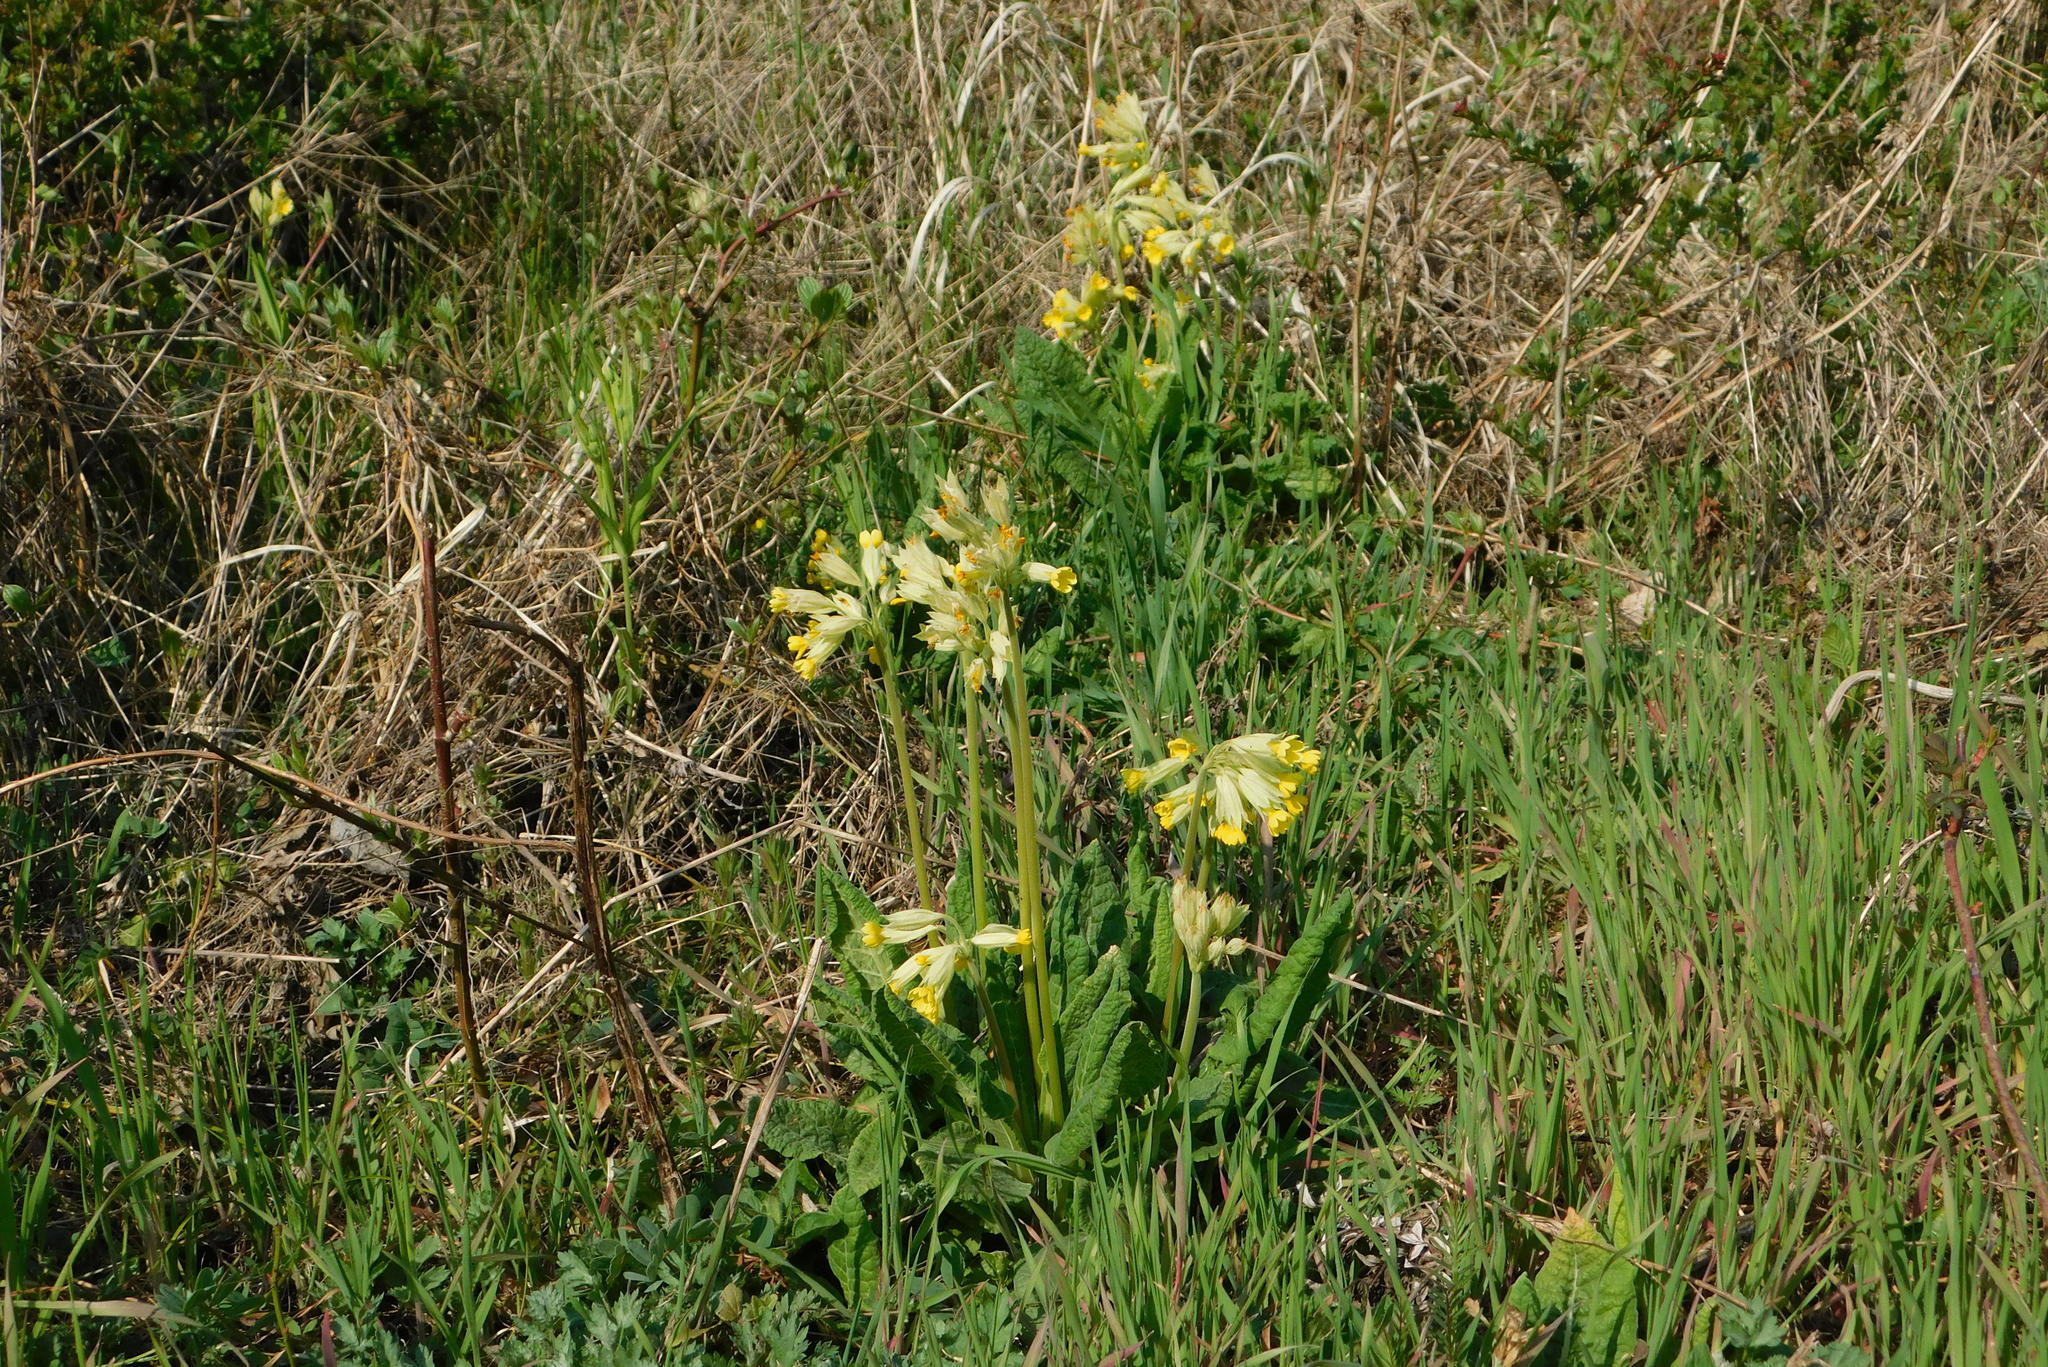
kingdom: Plantae
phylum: Tracheophyta
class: Magnoliopsida
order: Ericales
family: Primulaceae
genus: Primula
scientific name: Primula veris
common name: Cowslip
